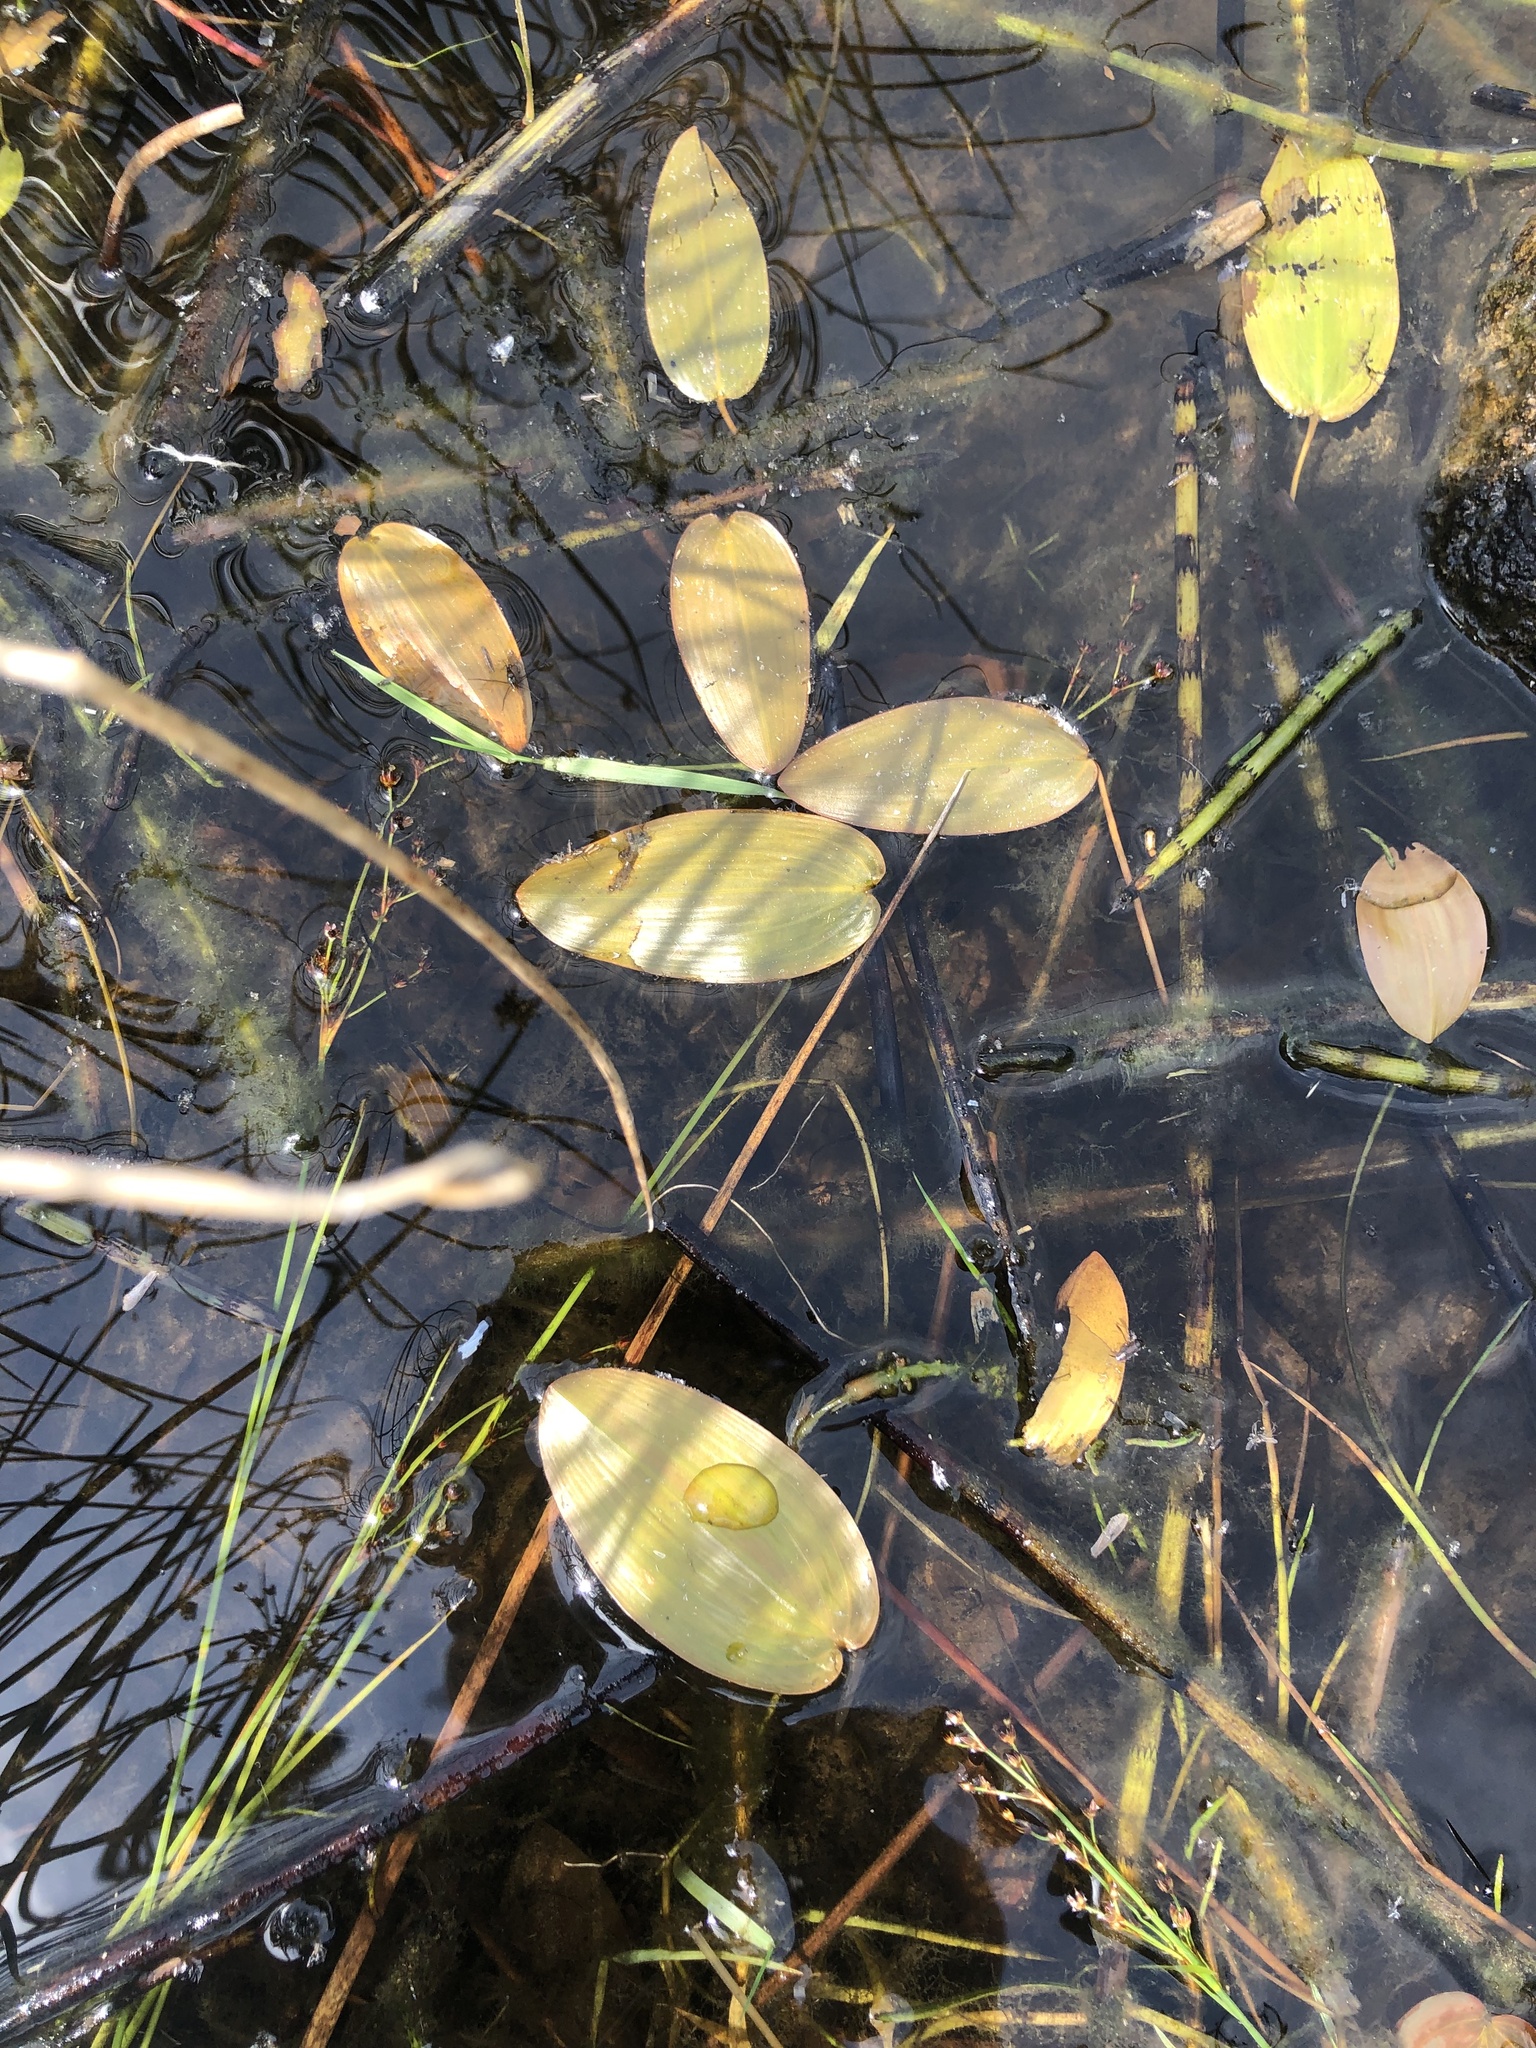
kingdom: Plantae
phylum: Tracheophyta
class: Liliopsida
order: Alismatales
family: Potamogetonaceae
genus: Potamogeton
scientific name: Potamogeton natans
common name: Broad-leaved pondweed
